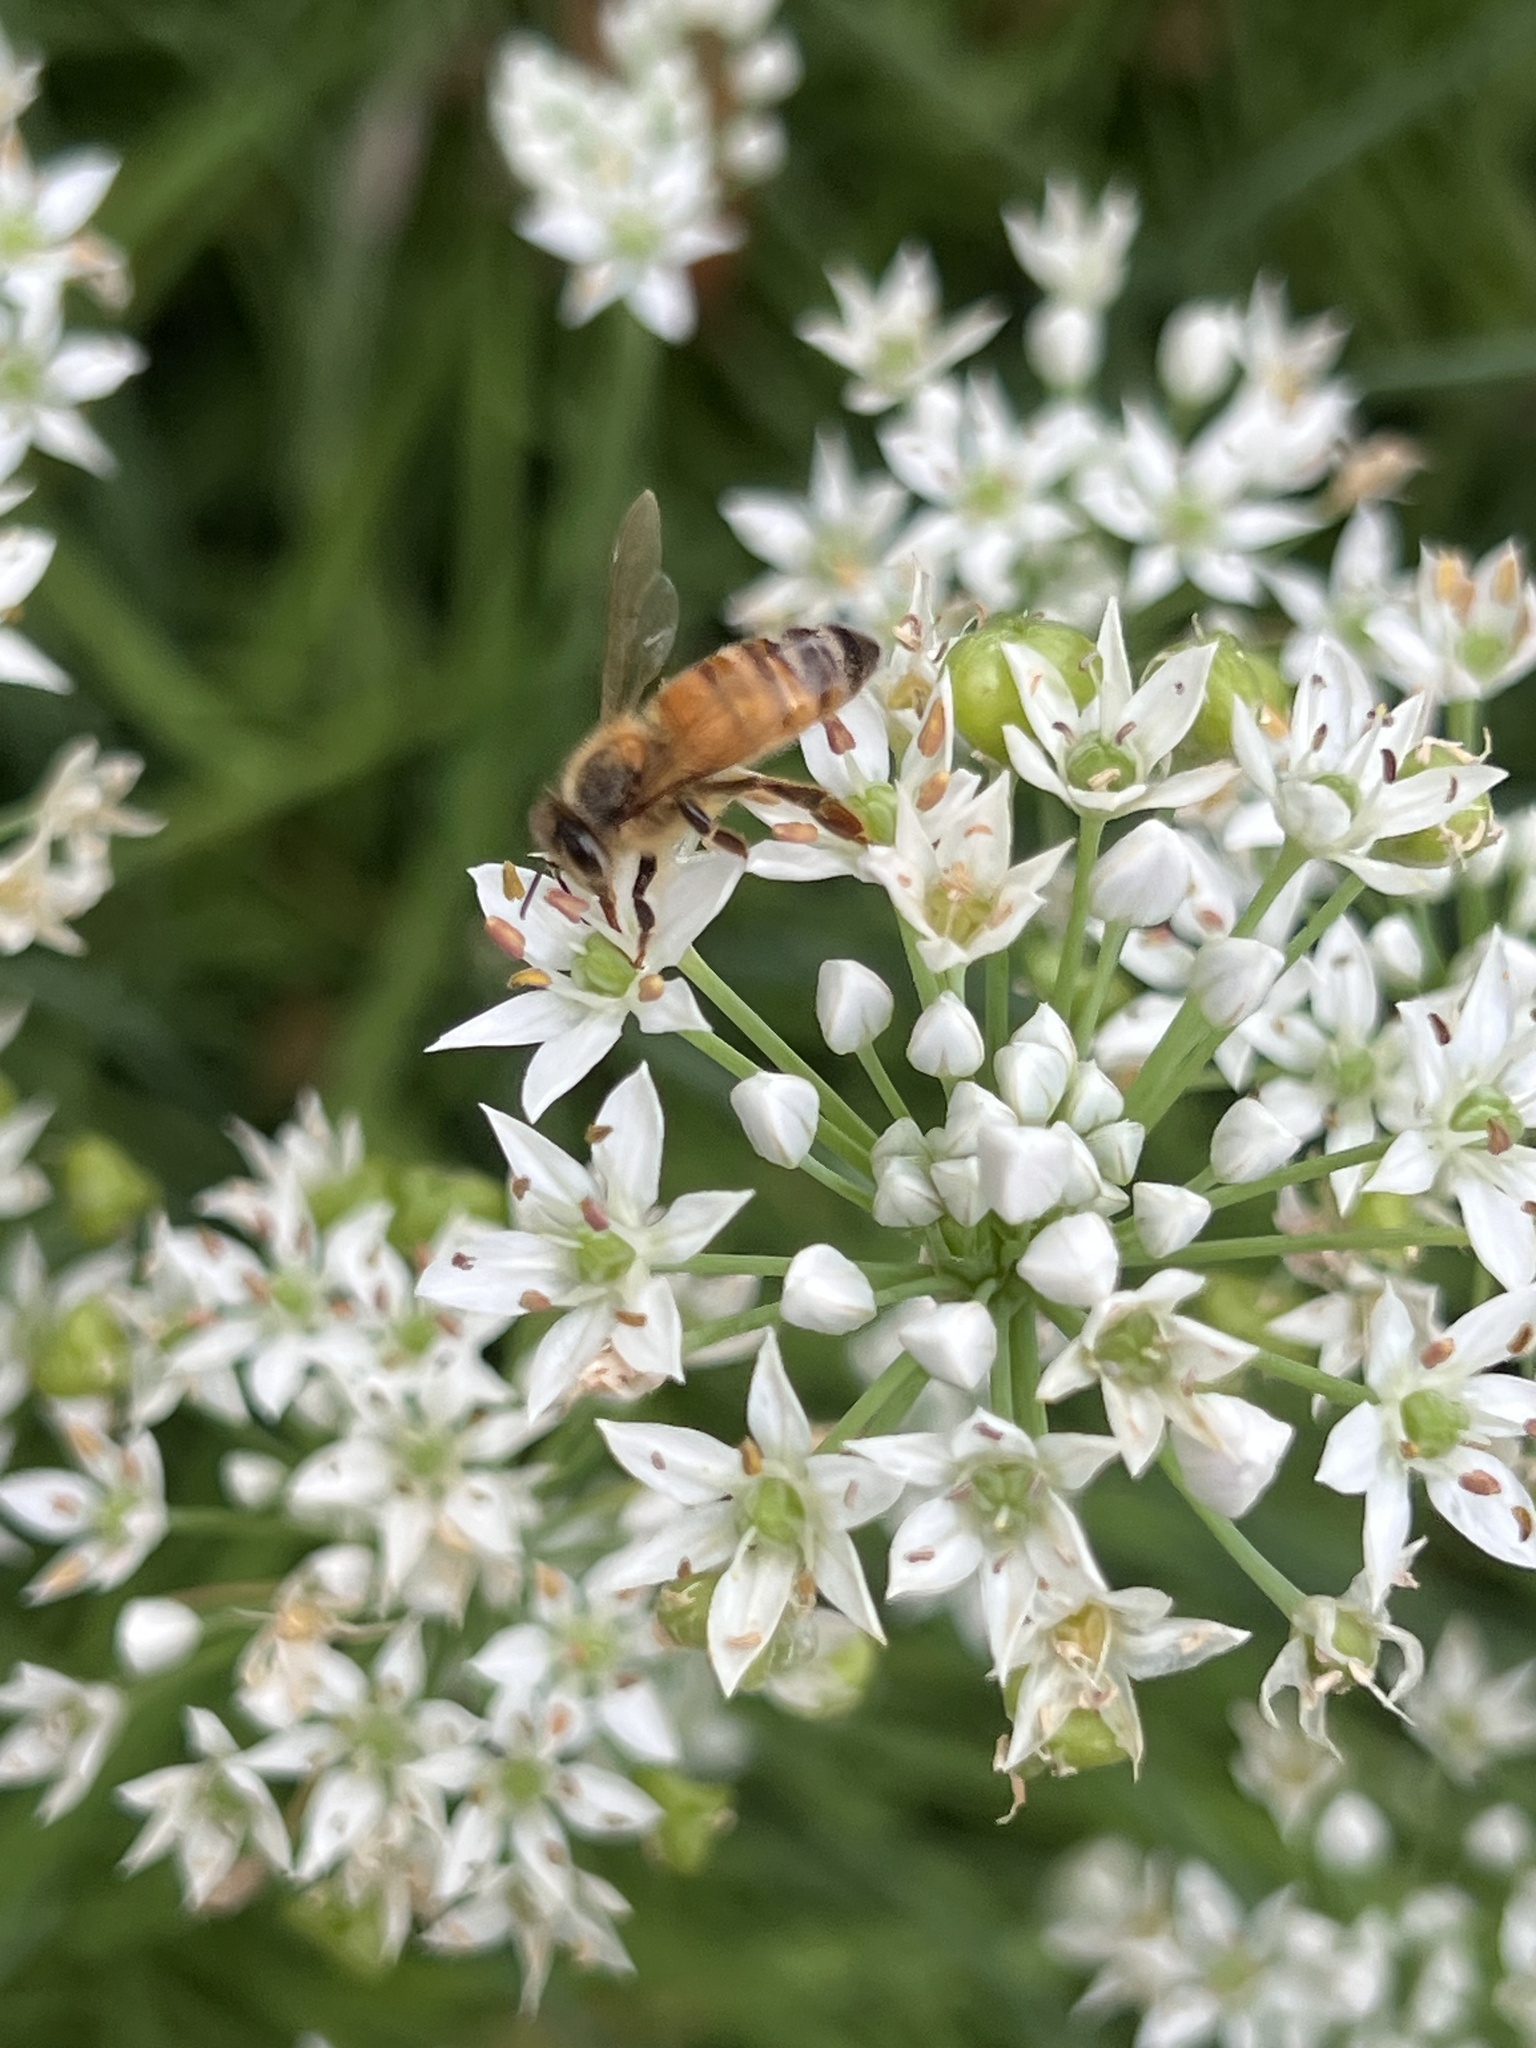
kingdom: Animalia
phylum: Arthropoda
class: Insecta
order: Hymenoptera
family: Apidae
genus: Apis
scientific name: Apis mellifera
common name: Honey bee
